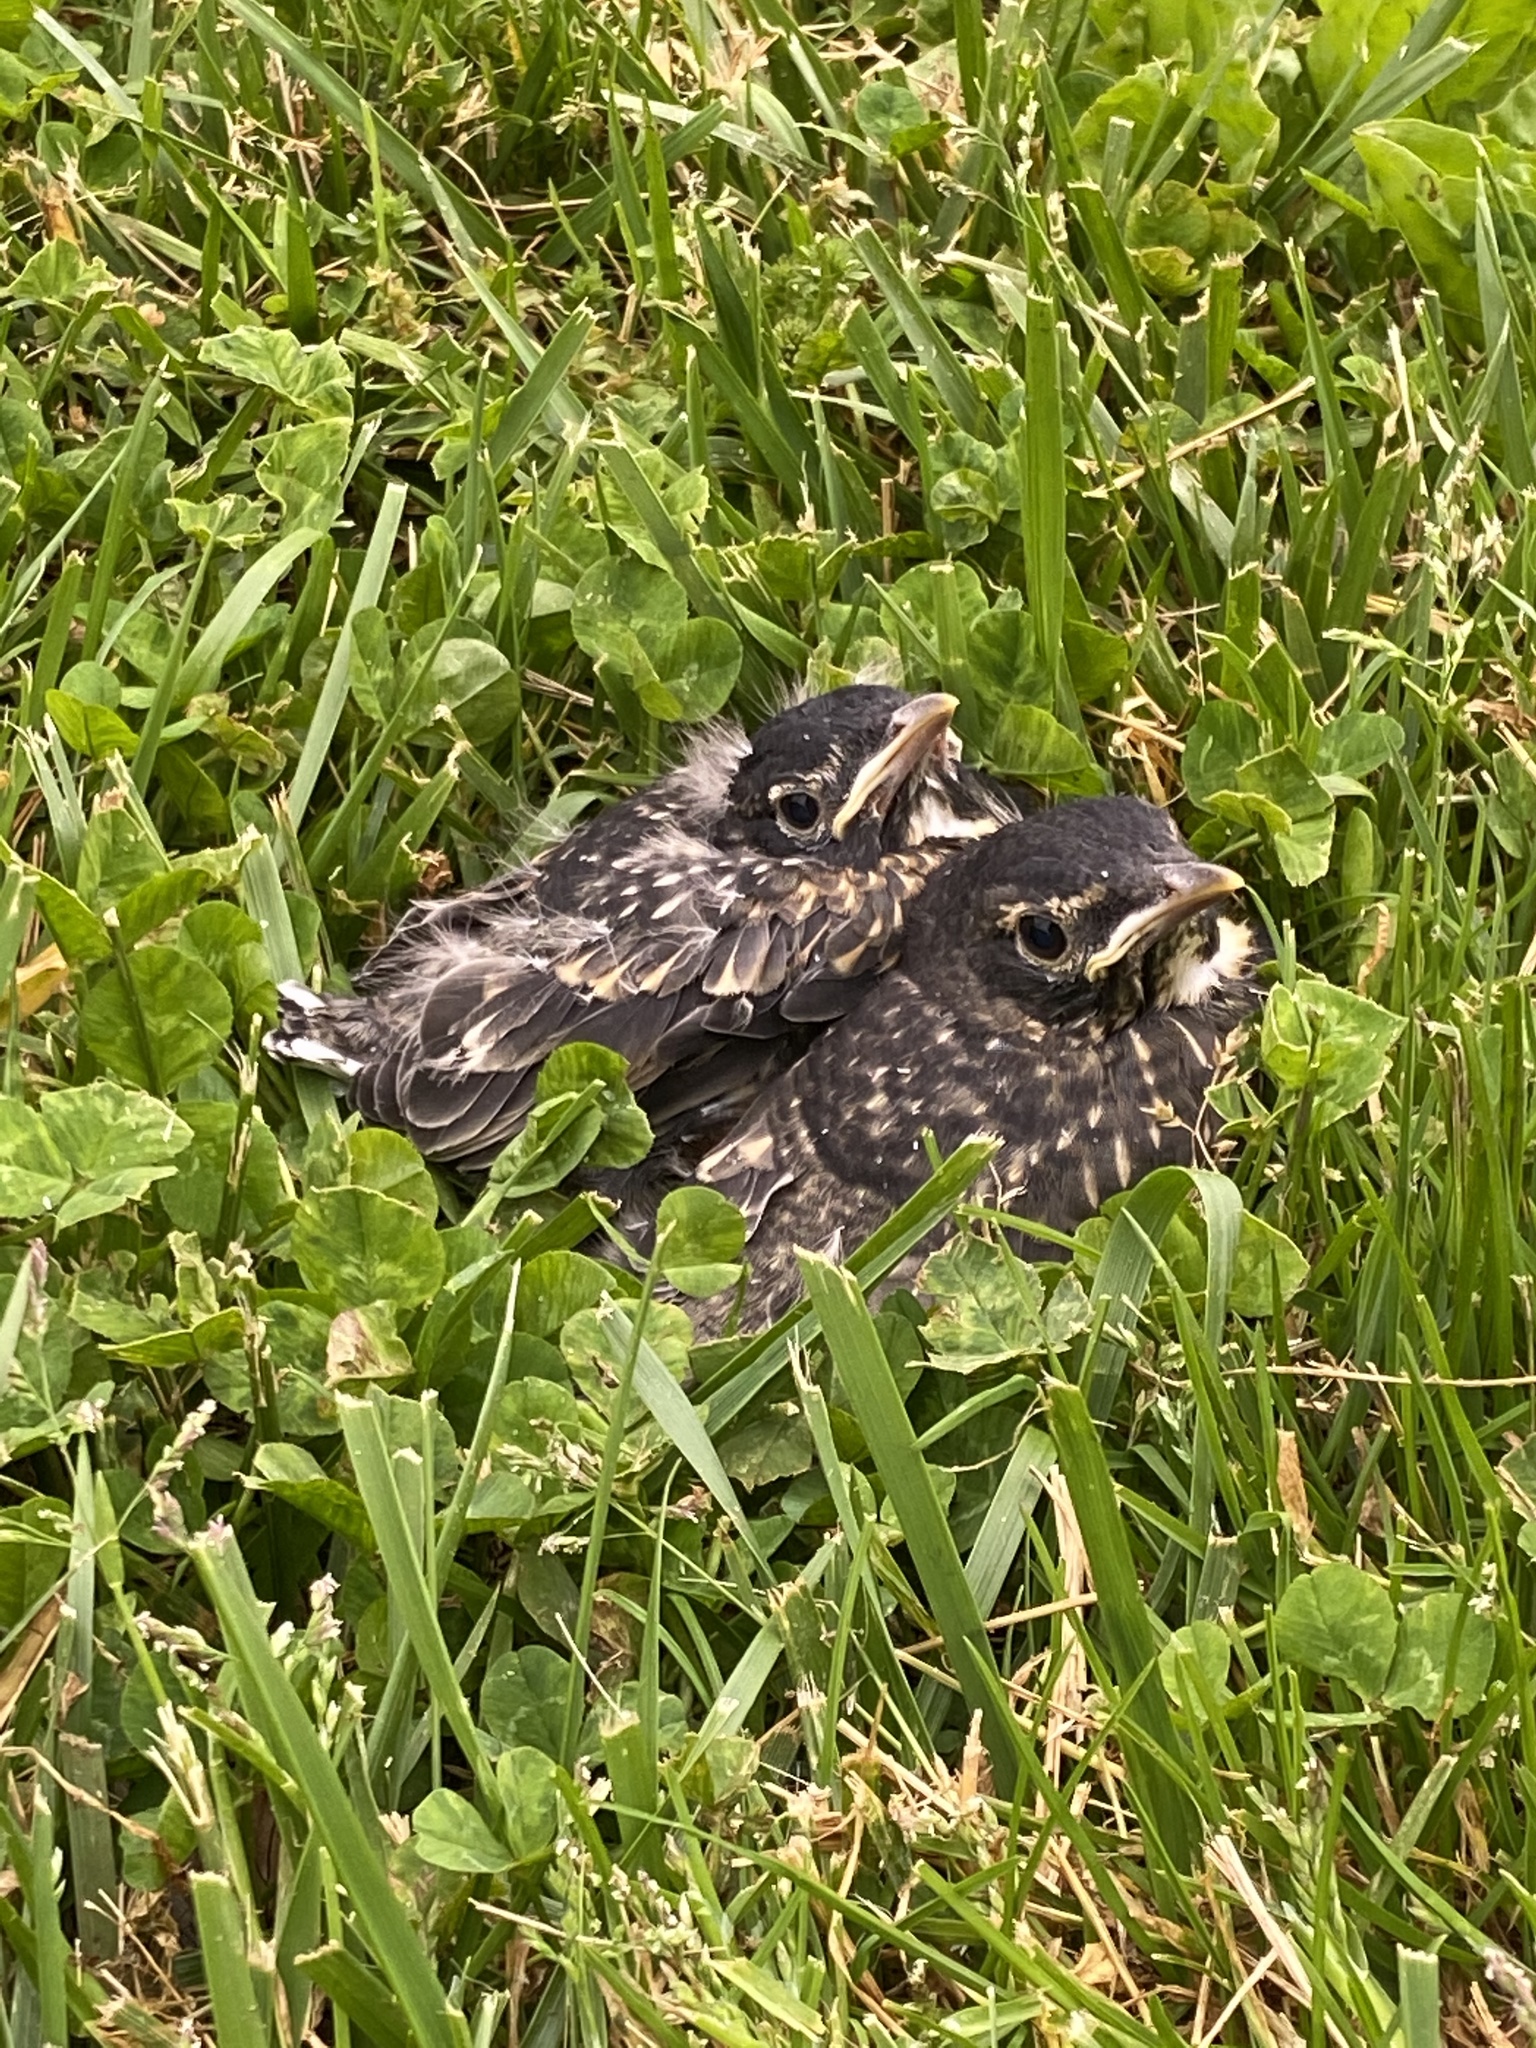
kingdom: Animalia
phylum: Chordata
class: Aves
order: Passeriformes
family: Turdidae
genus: Turdus
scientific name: Turdus migratorius
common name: American robin
